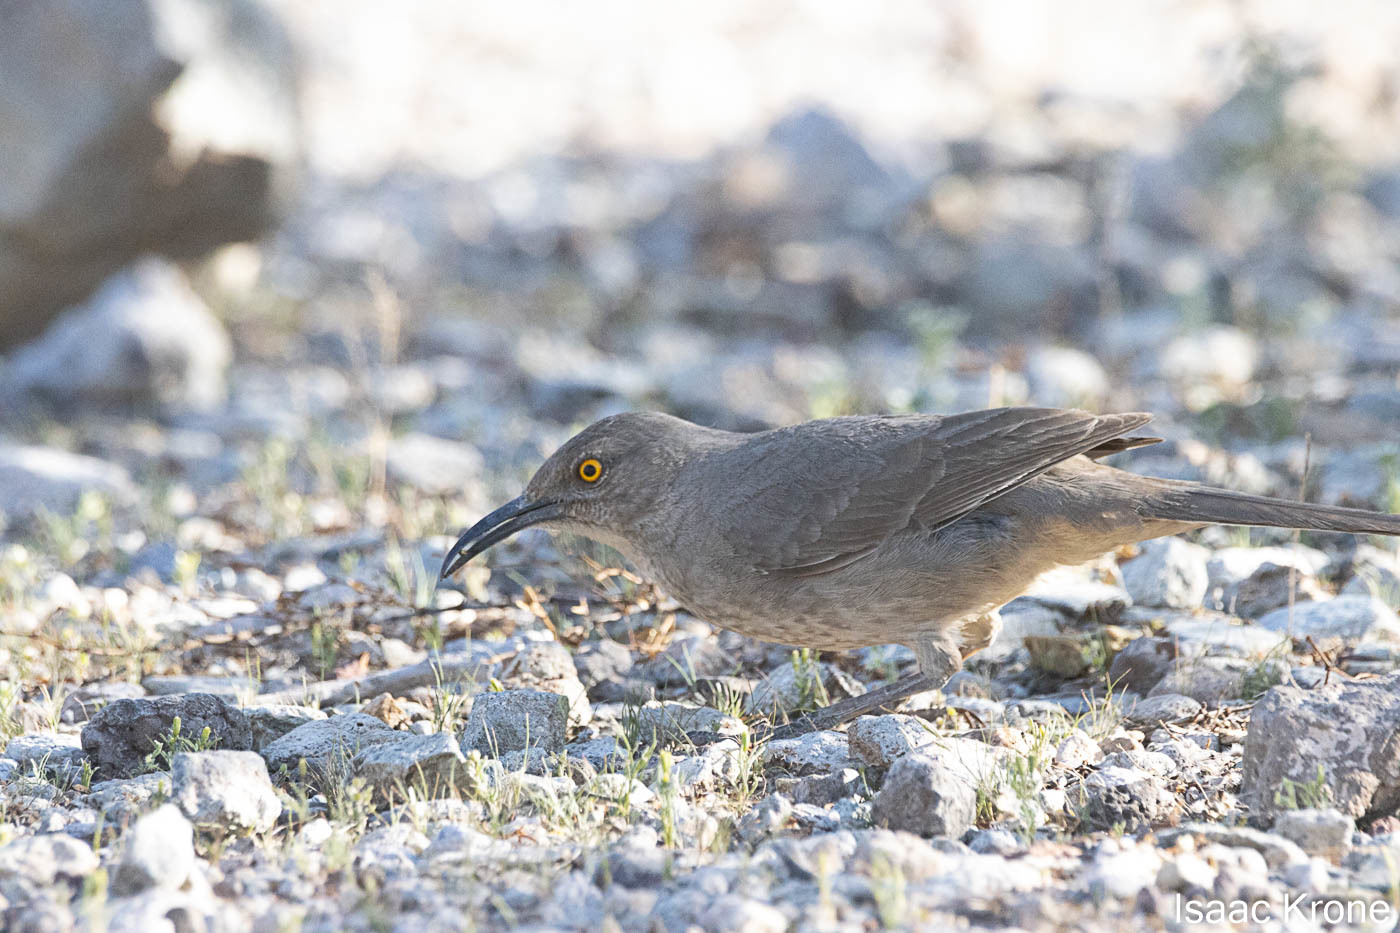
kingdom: Animalia
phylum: Chordata
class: Aves
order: Passeriformes
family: Mimidae
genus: Toxostoma
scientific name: Toxostoma curvirostre
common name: Curve-billed thrasher
